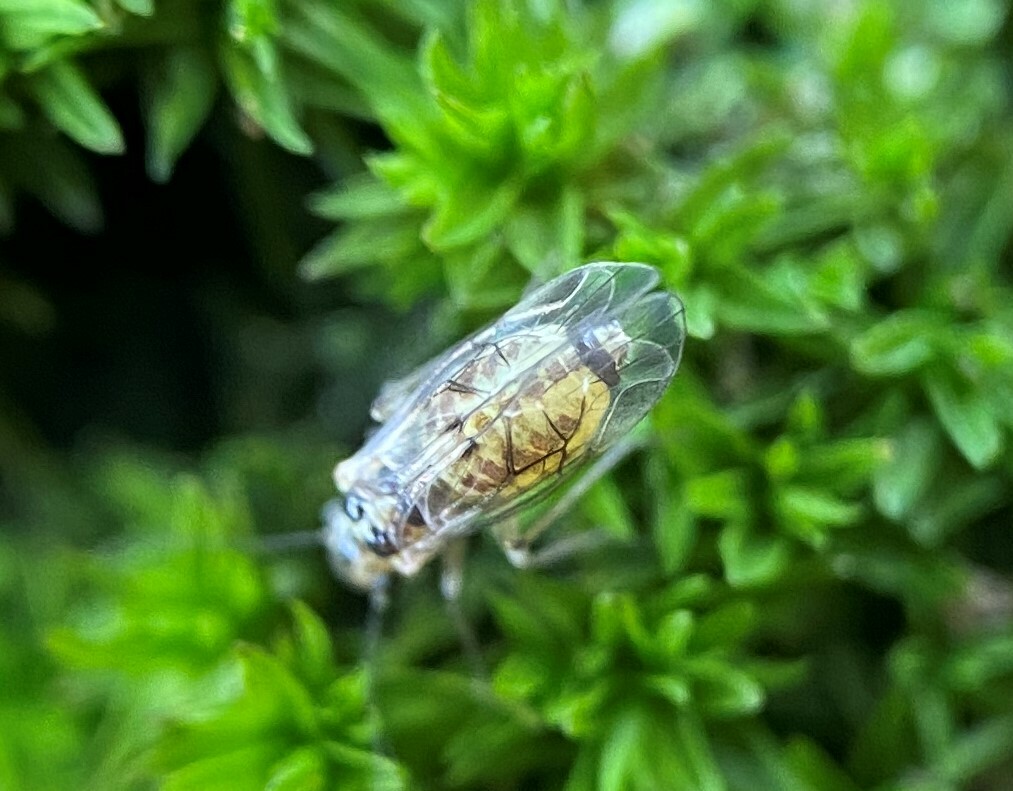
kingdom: Animalia
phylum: Arthropoda
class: Insecta
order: Psocodea
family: Dasydemellidae
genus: Teliapsocus
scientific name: Teliapsocus conterminus
